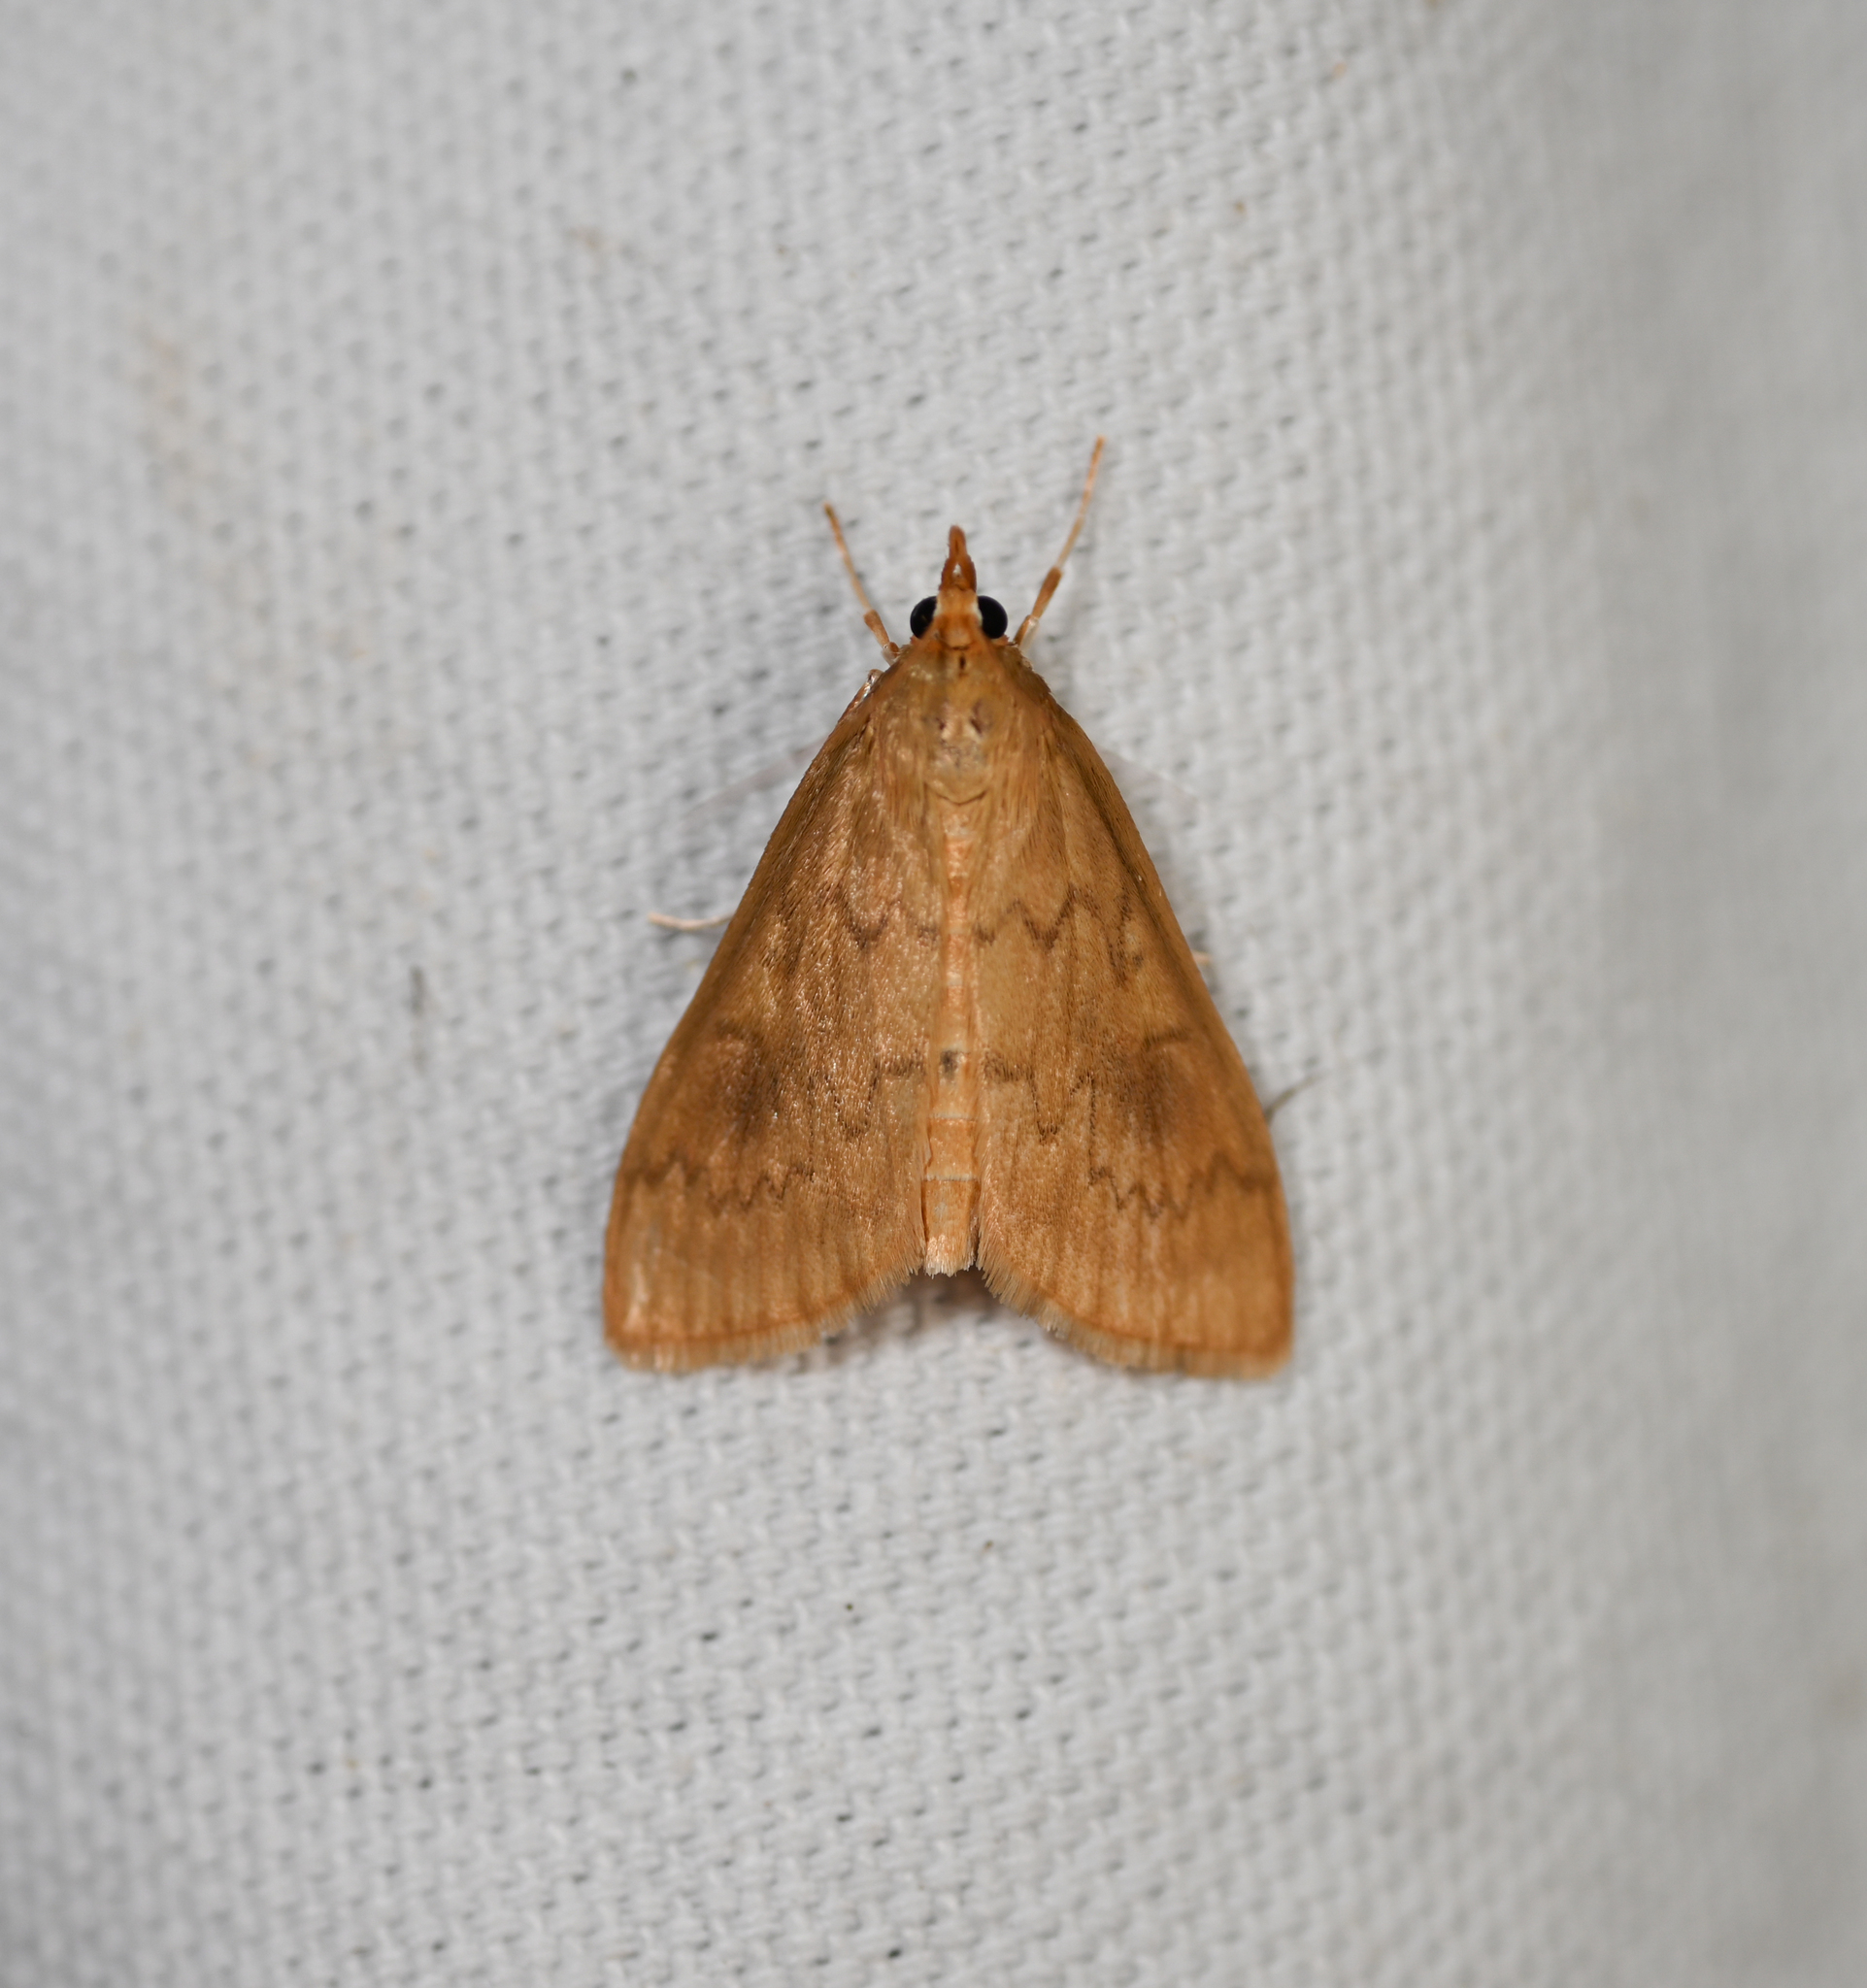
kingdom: Animalia
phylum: Arthropoda
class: Insecta
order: Lepidoptera
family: Crambidae
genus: Ostrinia
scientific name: Ostrinia penitalis
